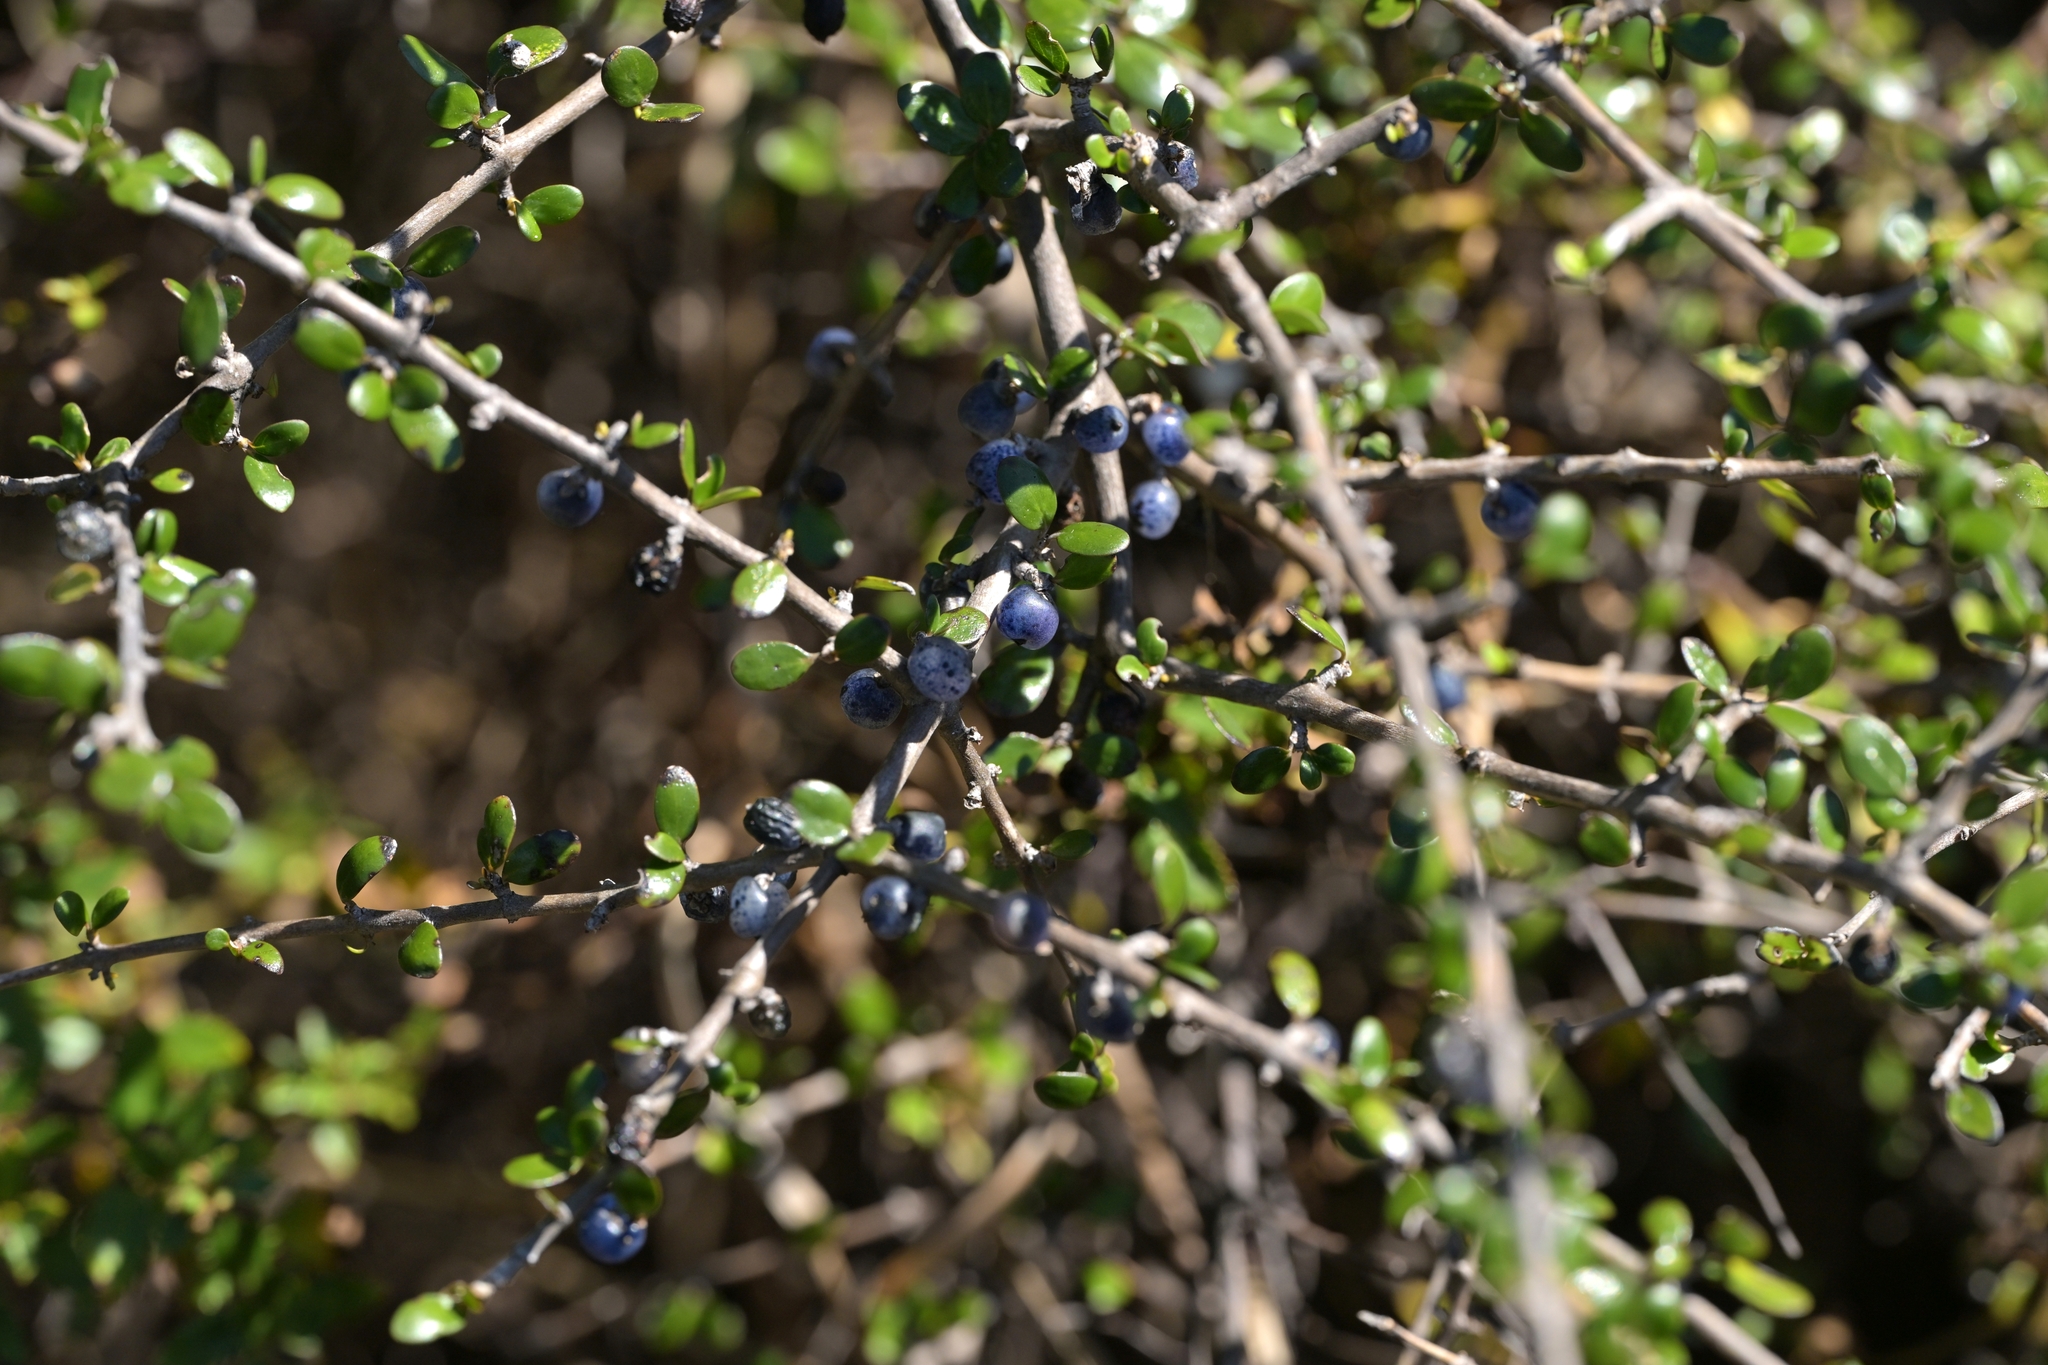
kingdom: Plantae
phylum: Tracheophyta
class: Magnoliopsida
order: Gentianales
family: Rubiaceae
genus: Coprosma
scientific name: Coprosma propinqua
